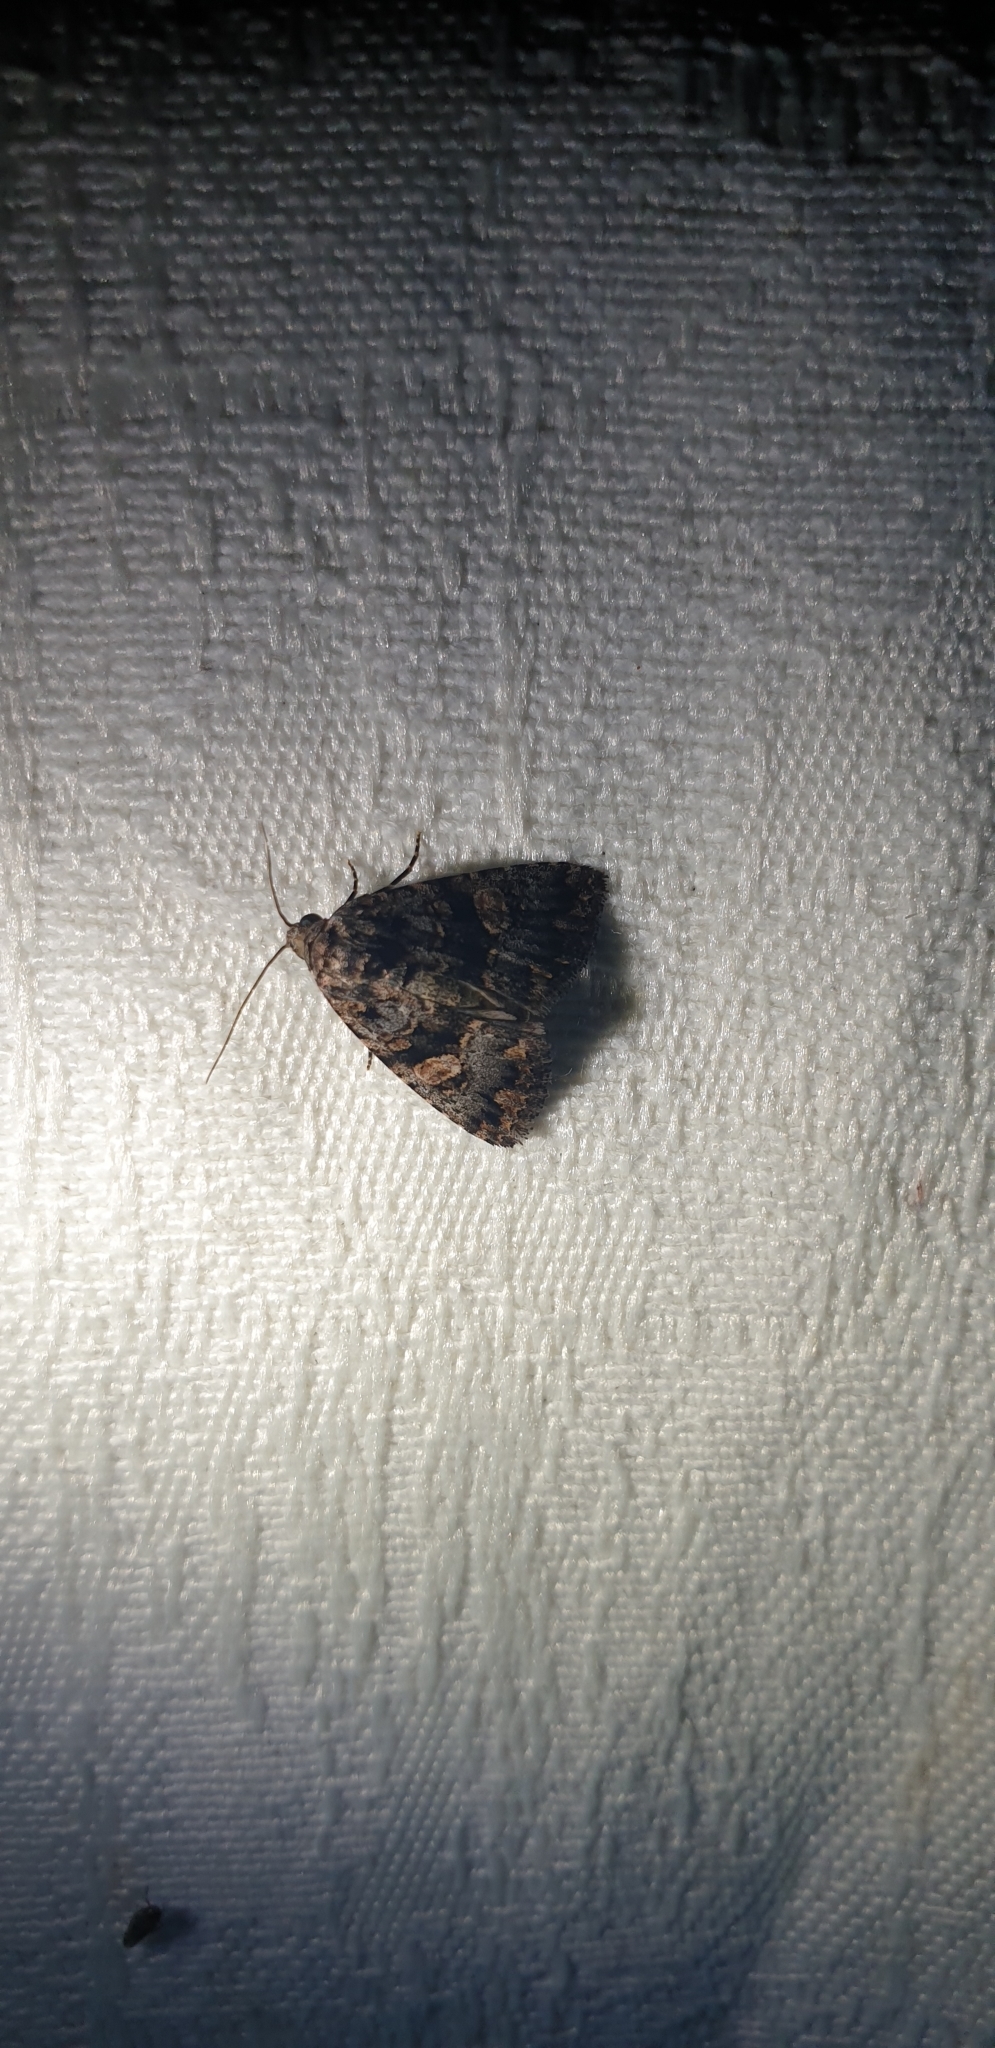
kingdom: Animalia
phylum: Arthropoda
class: Insecta
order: Lepidoptera
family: Noctuidae
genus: Condica
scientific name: Condica
